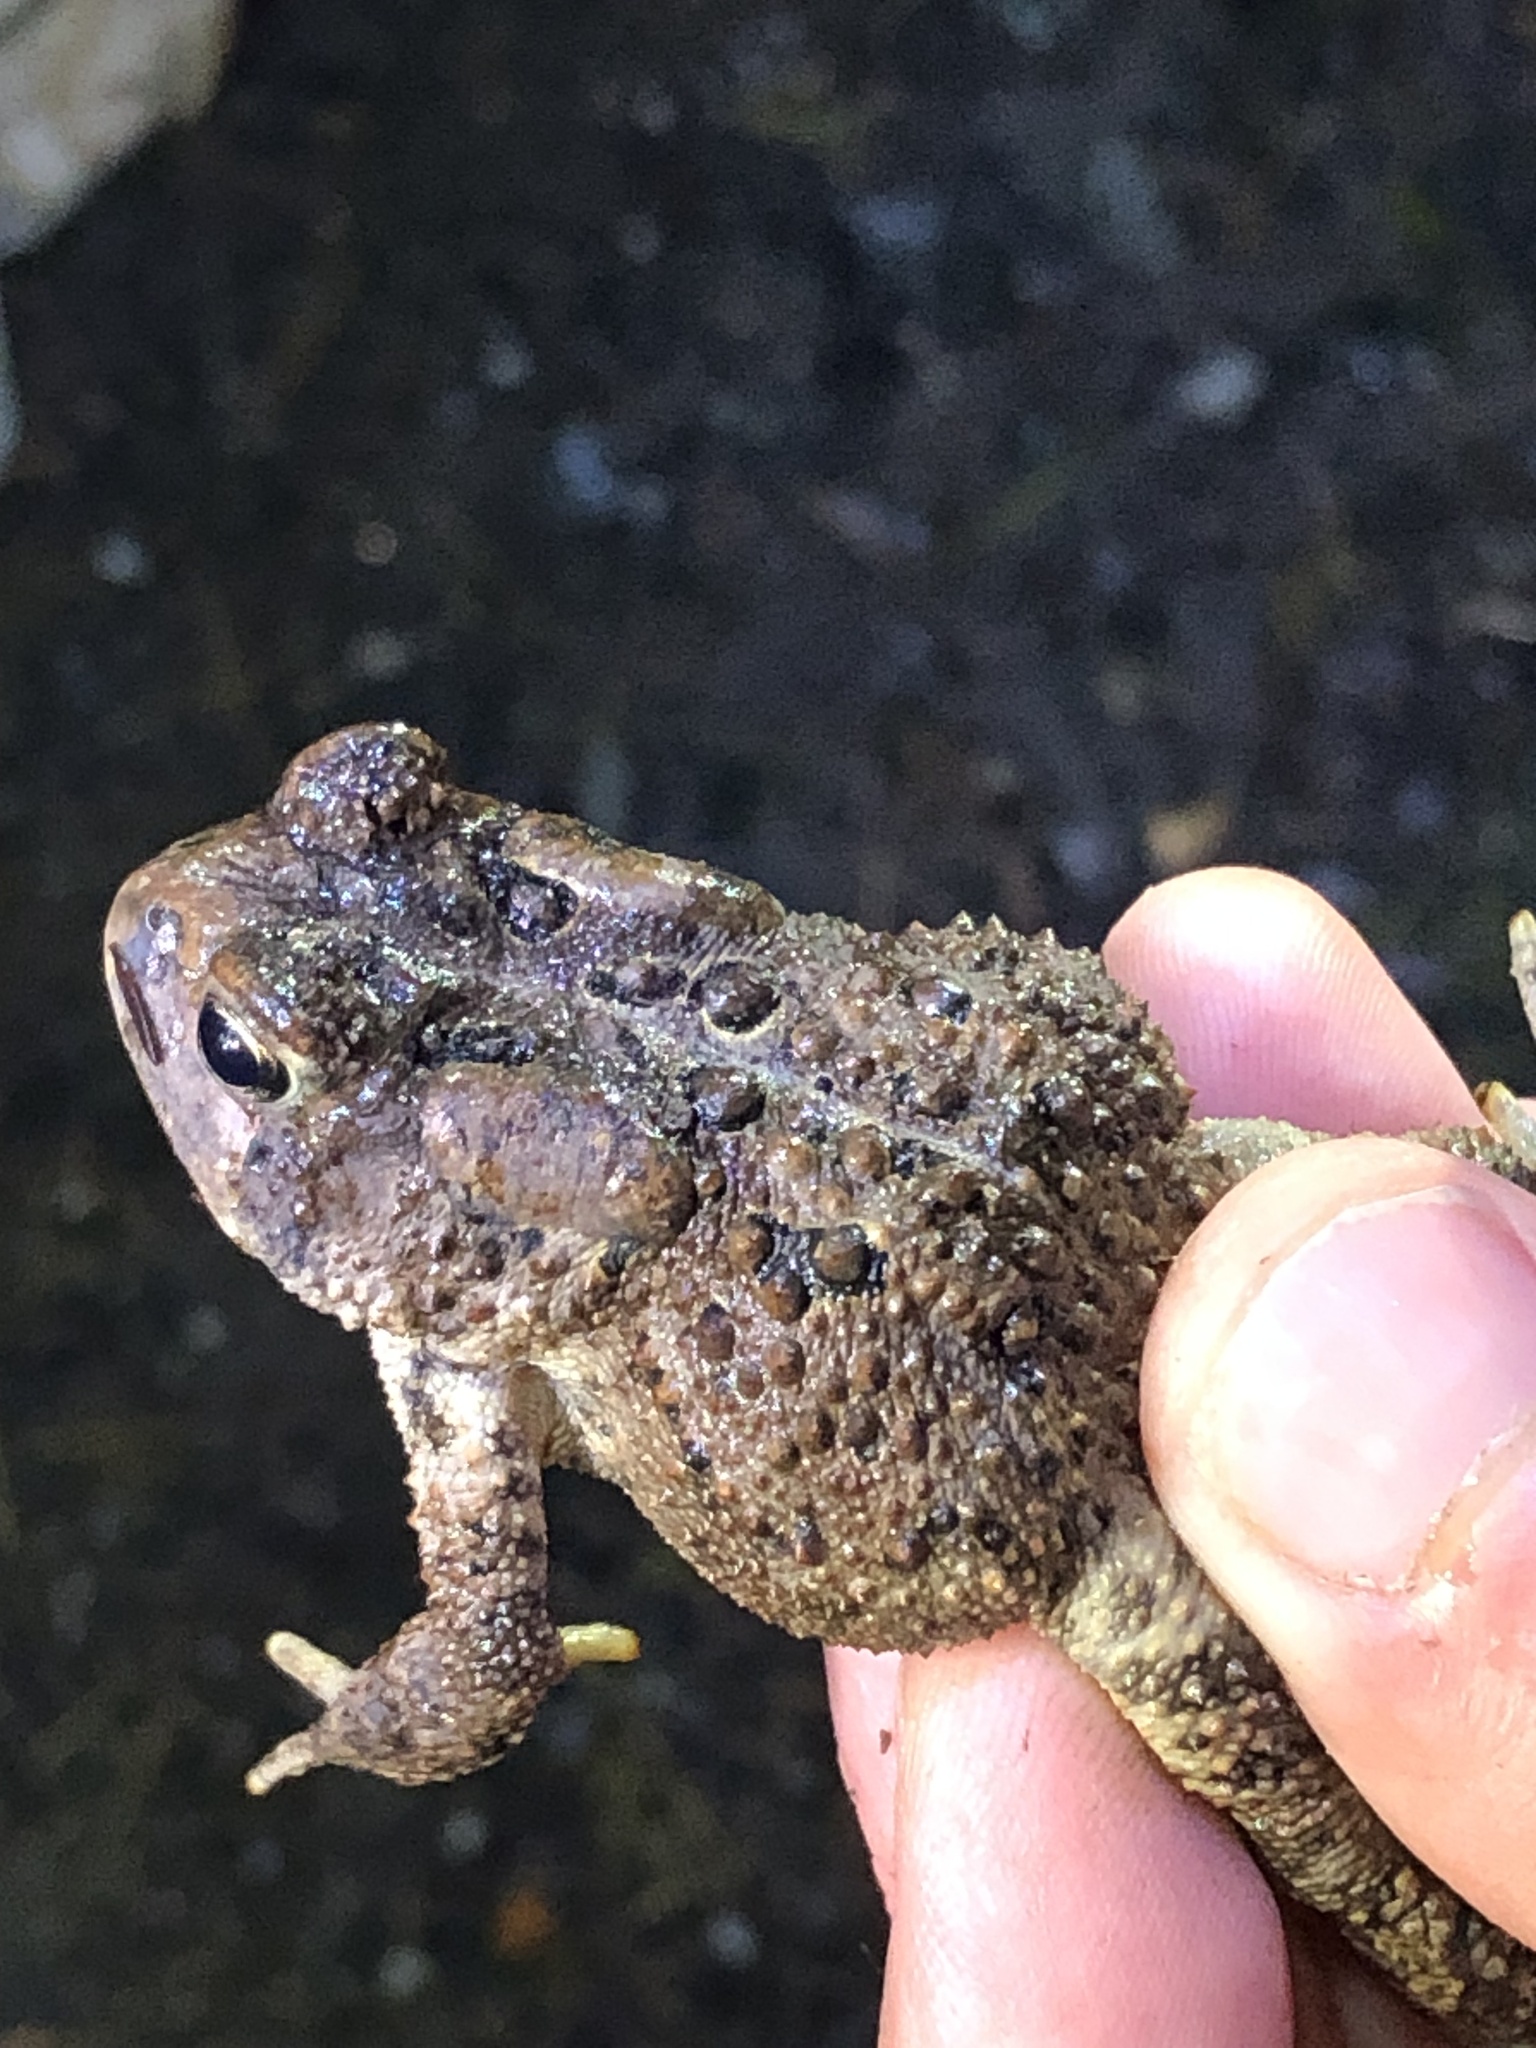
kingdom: Animalia
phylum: Chordata
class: Amphibia
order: Anura
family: Bufonidae
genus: Anaxyrus
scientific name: Anaxyrus americanus
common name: American toad
